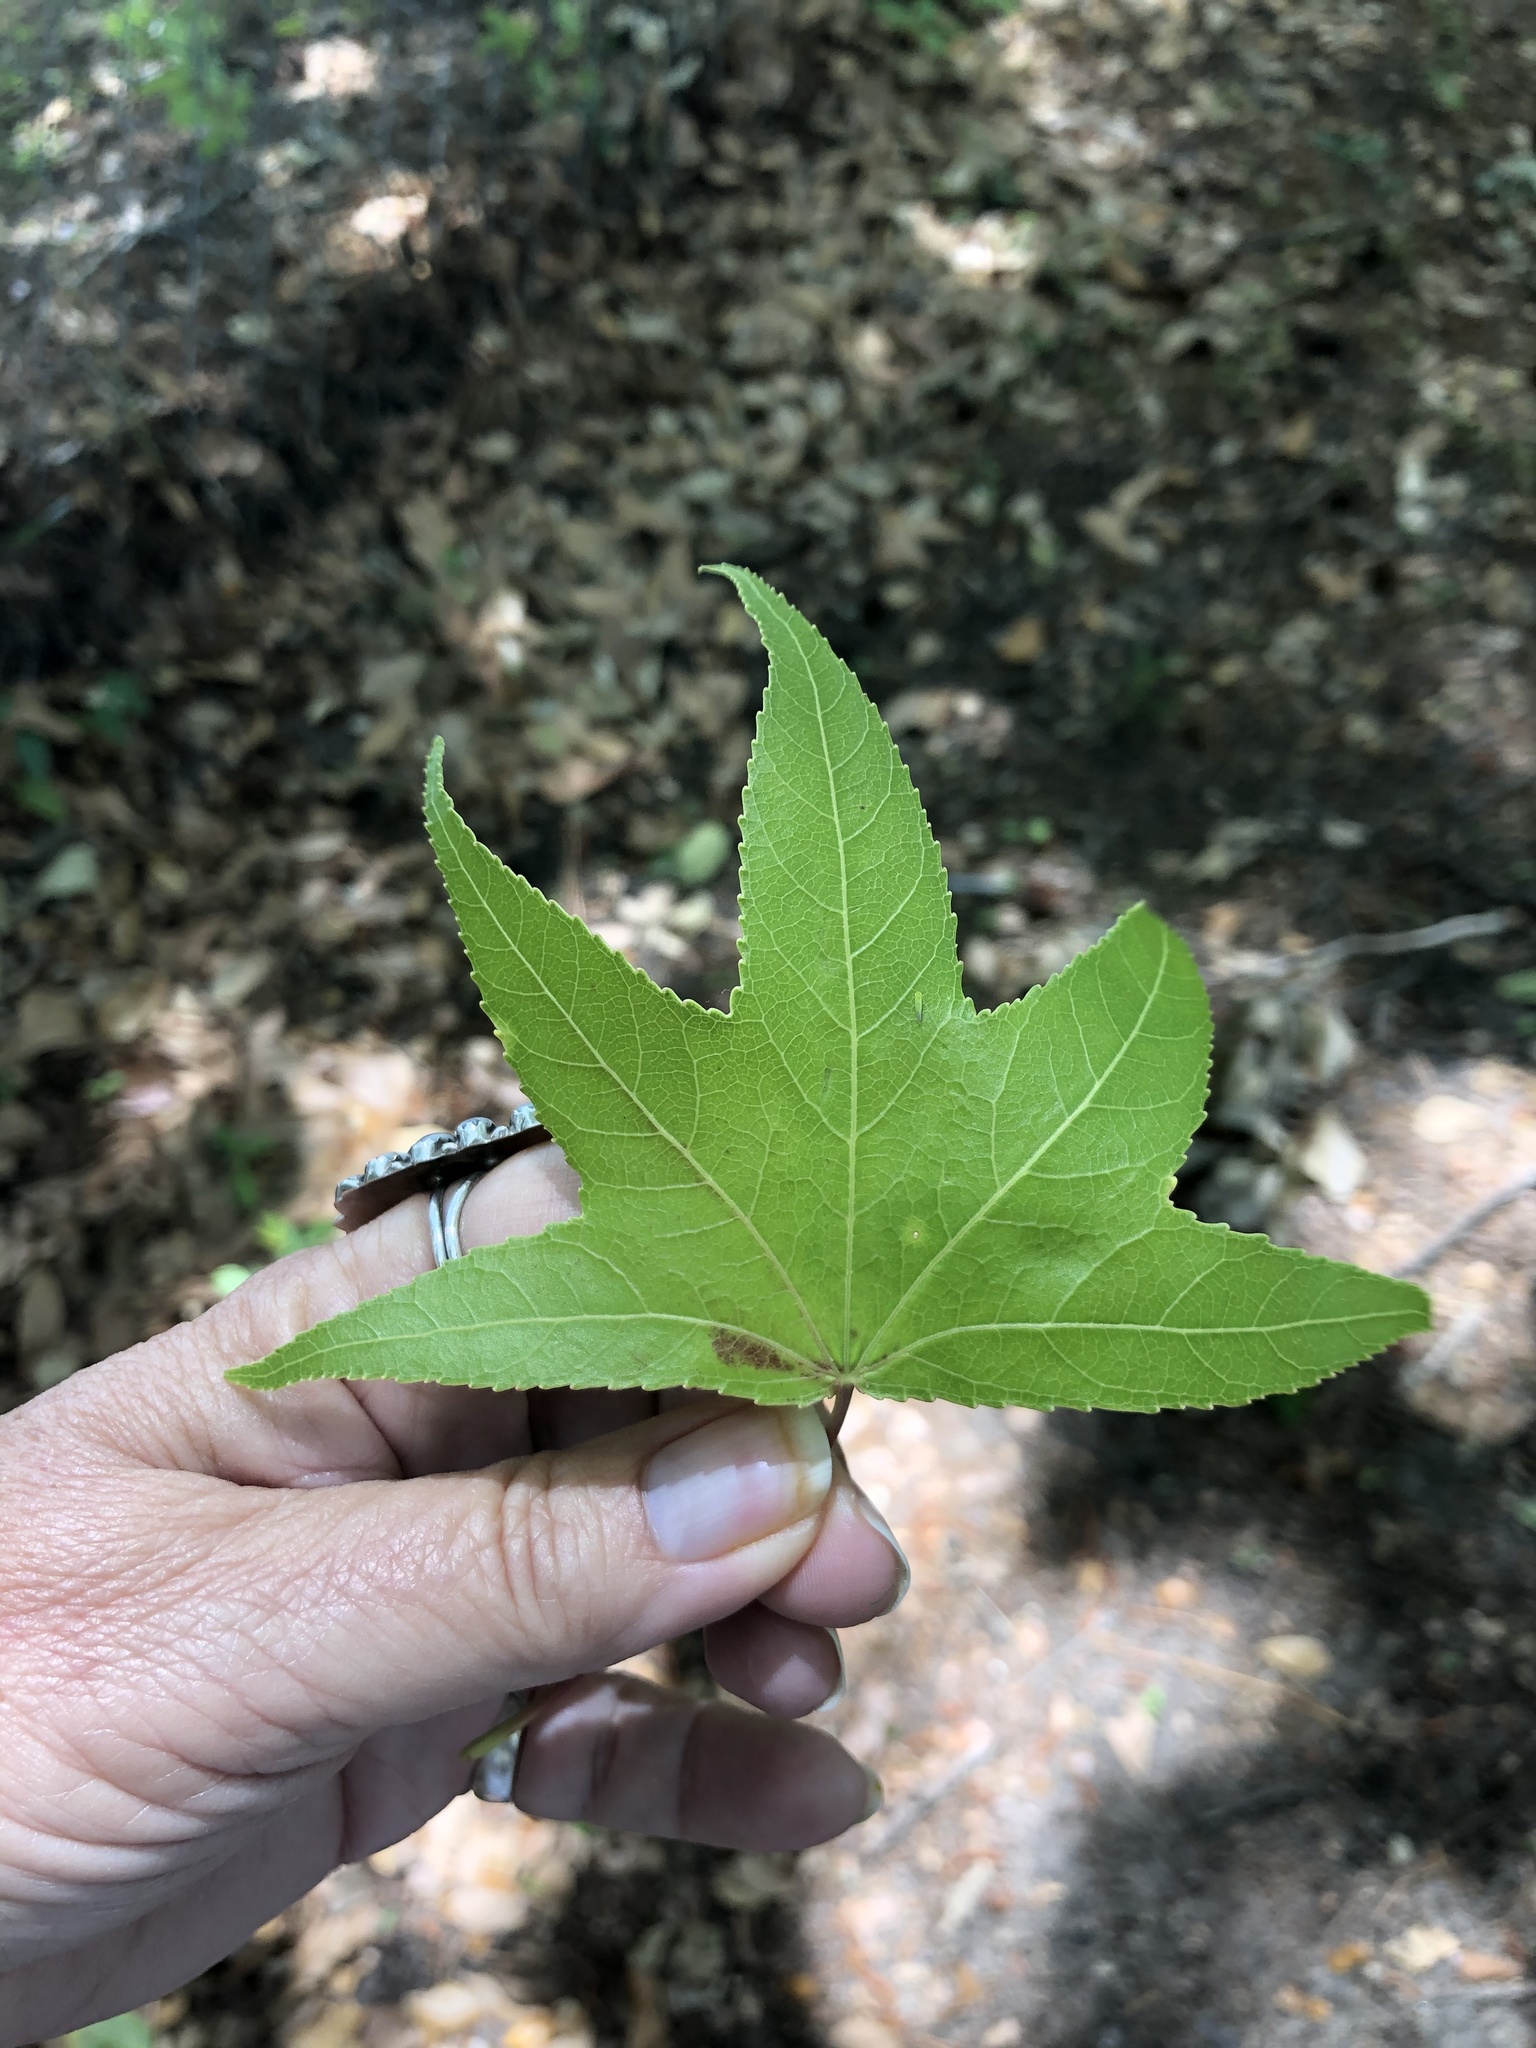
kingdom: Plantae
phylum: Tracheophyta
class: Magnoliopsida
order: Saxifragales
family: Altingiaceae
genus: Liquidambar
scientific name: Liquidambar styraciflua
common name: Sweet gum
